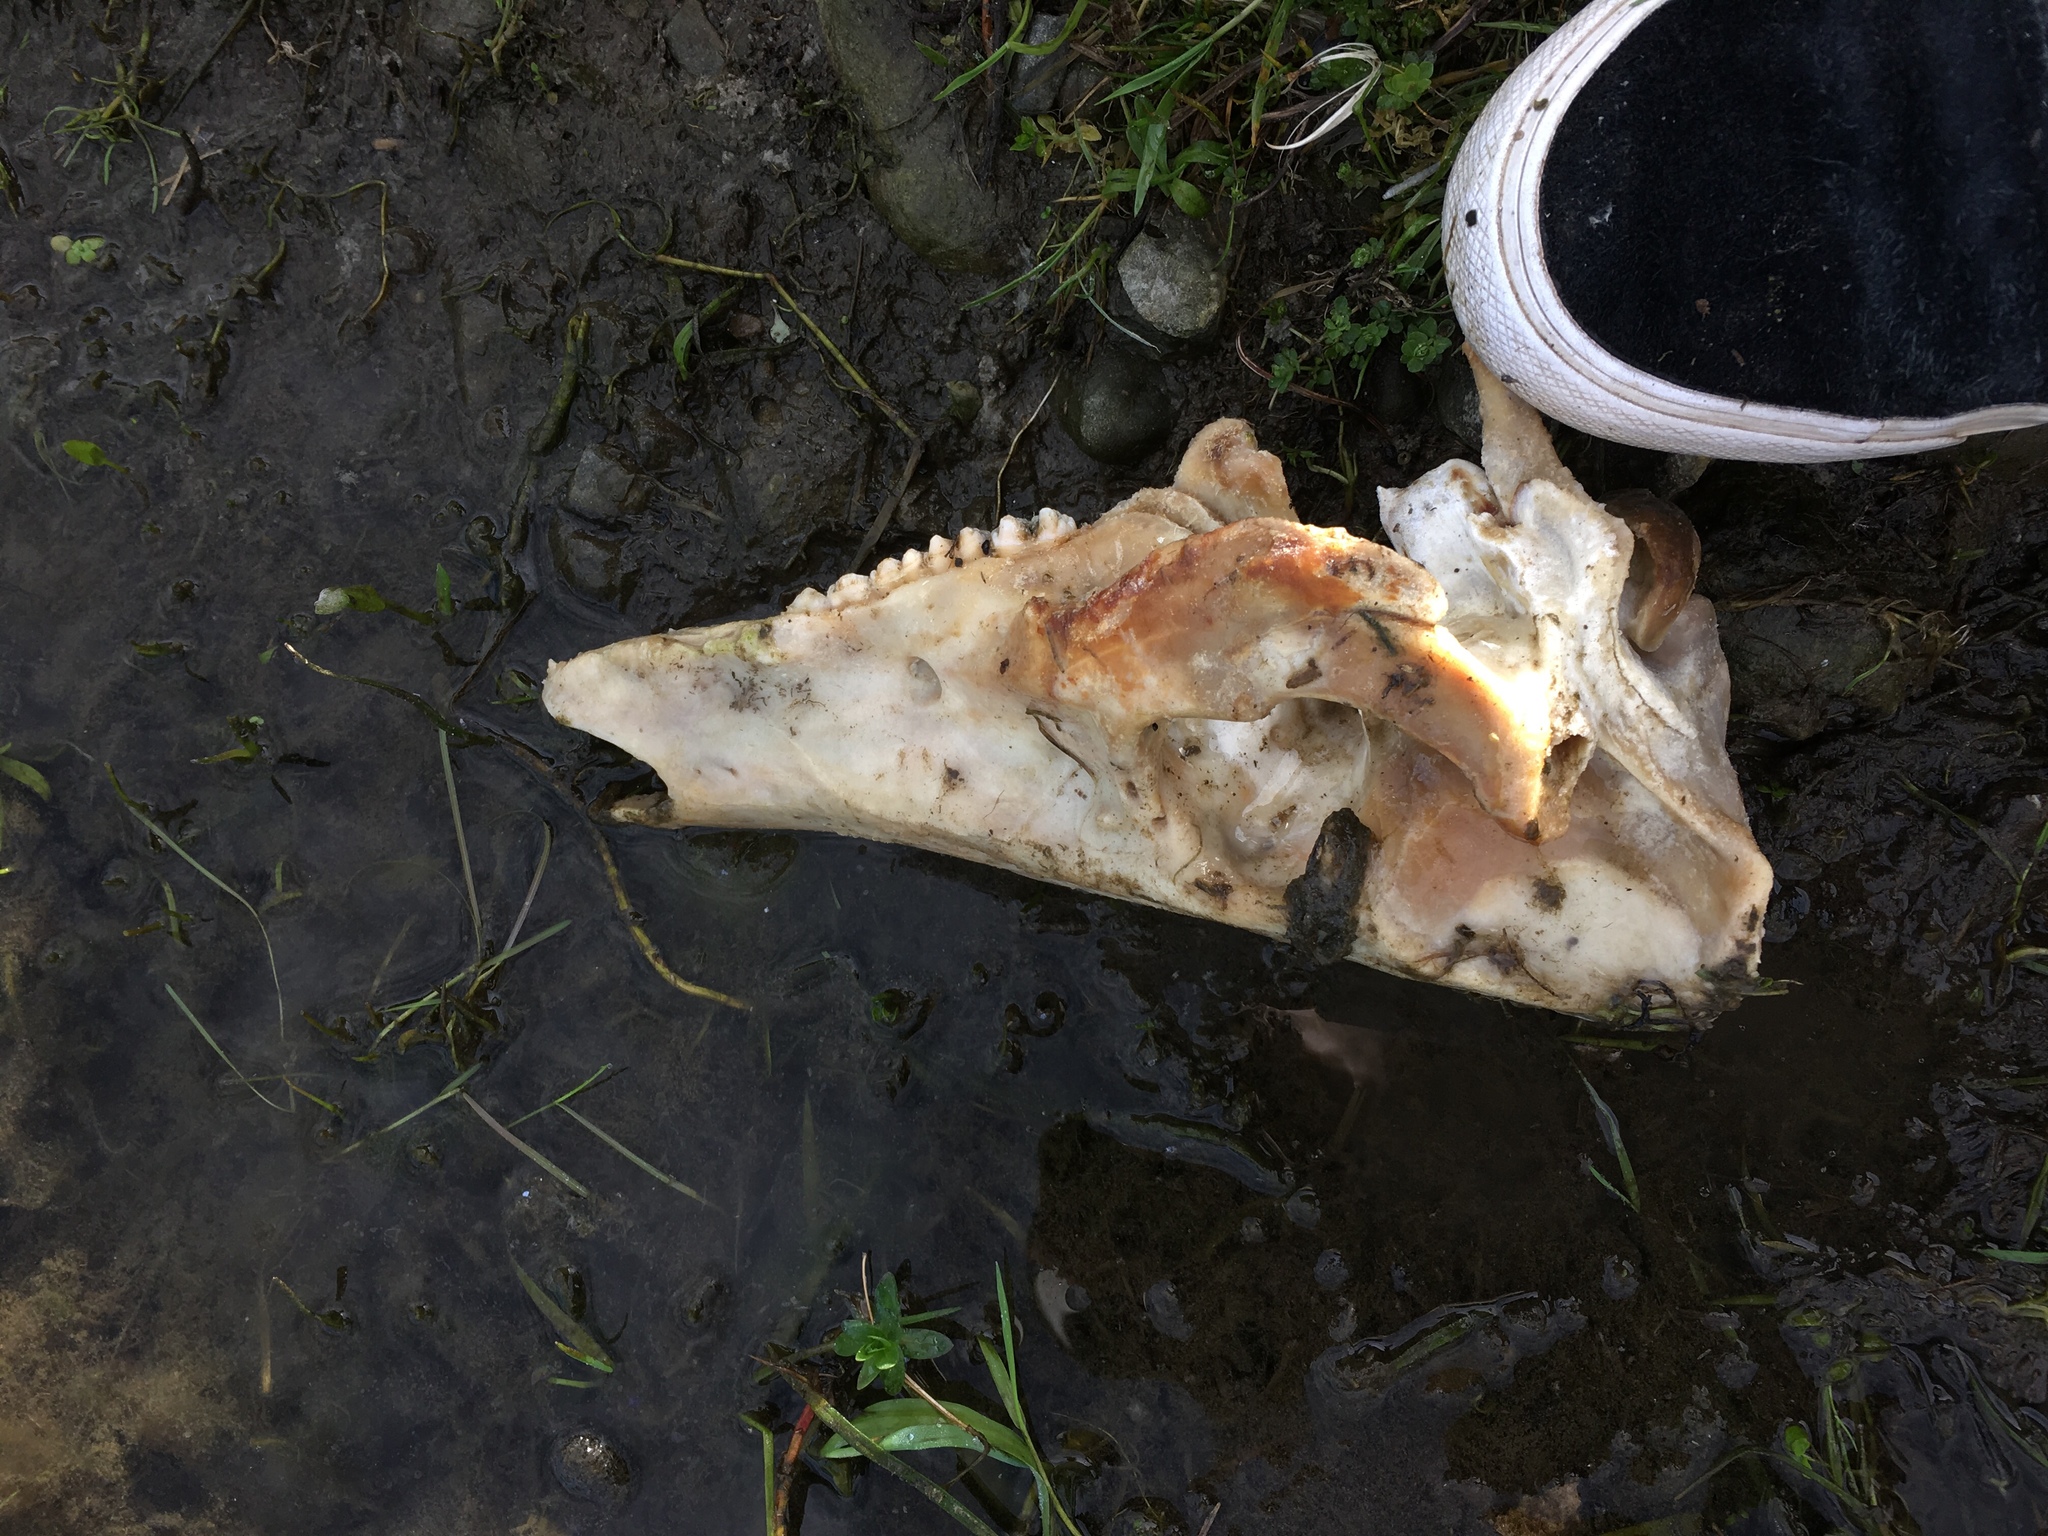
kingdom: Animalia
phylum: Chordata
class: Mammalia
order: Artiodactyla
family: Suidae
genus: Sus
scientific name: Sus scrofa
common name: Wild boar
